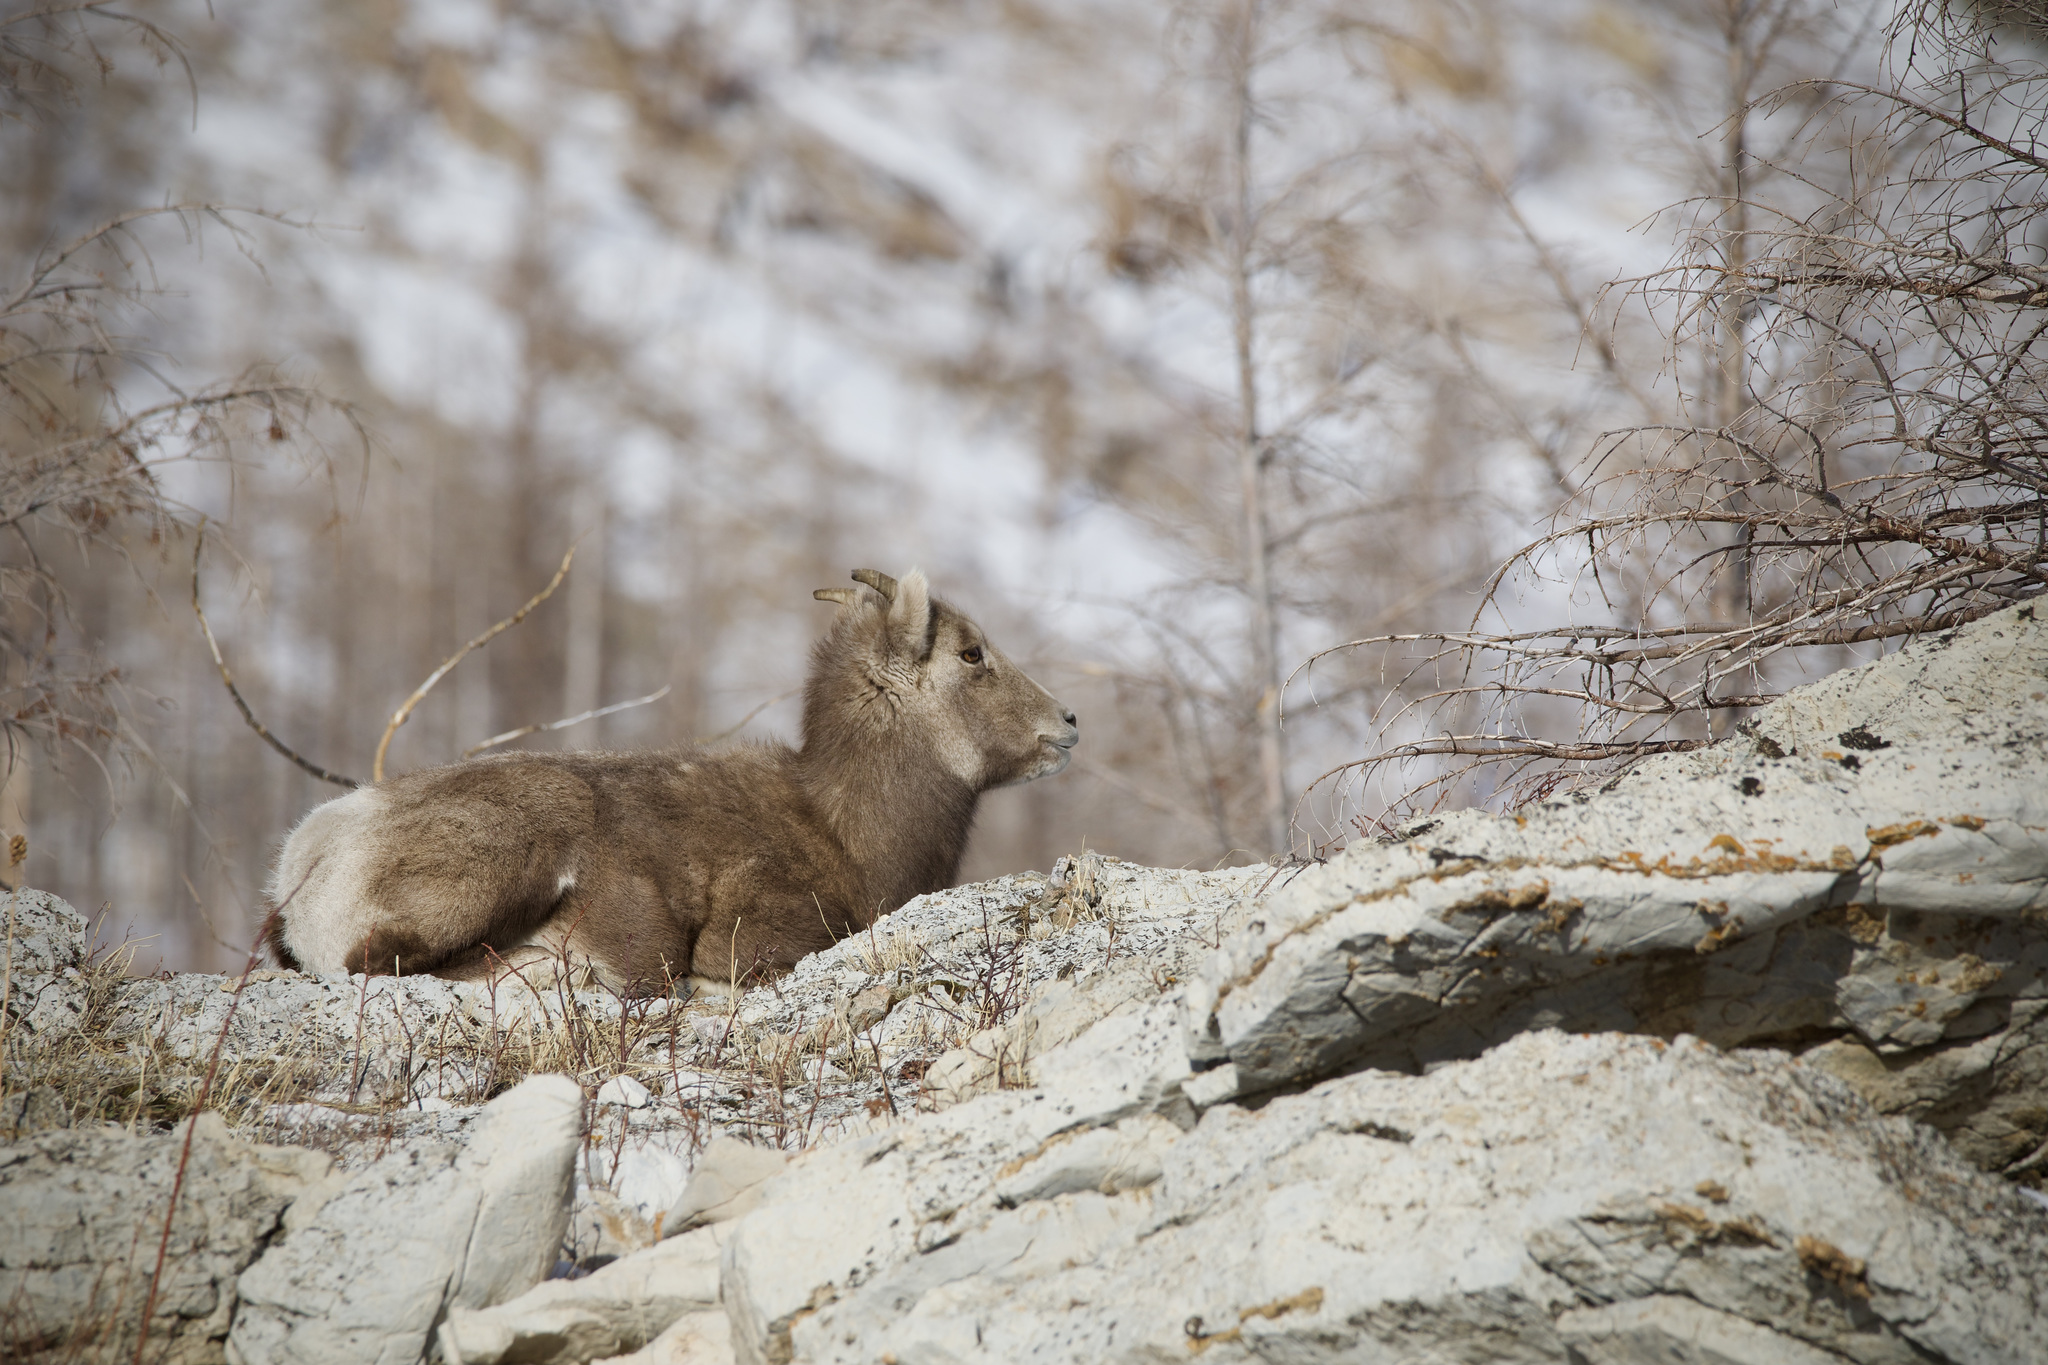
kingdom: Animalia
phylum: Chordata
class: Mammalia
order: Artiodactyla
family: Bovidae
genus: Ovis
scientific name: Ovis canadensis
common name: Bighorn sheep
